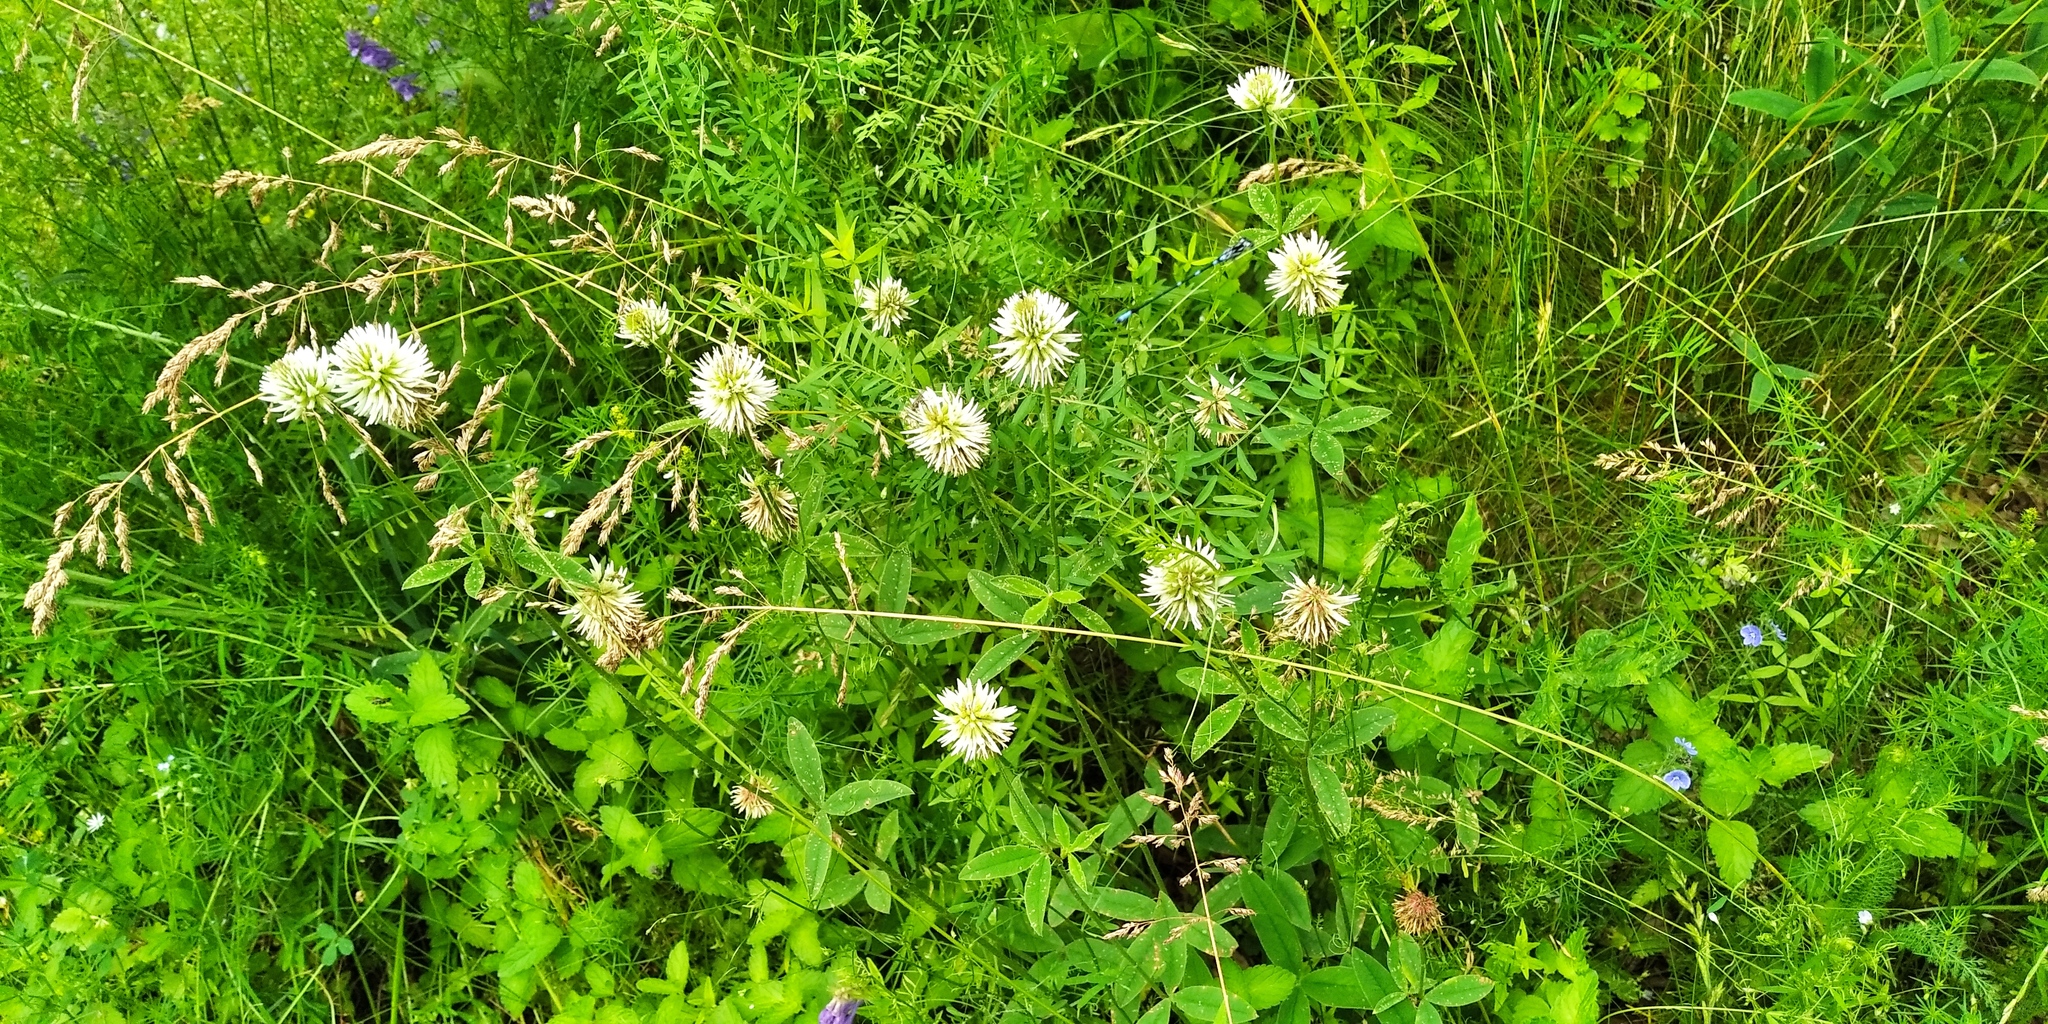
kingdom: Plantae
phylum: Tracheophyta
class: Magnoliopsida
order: Fabales
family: Fabaceae
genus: Trifolium
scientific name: Trifolium montanum
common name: Mountain clover
